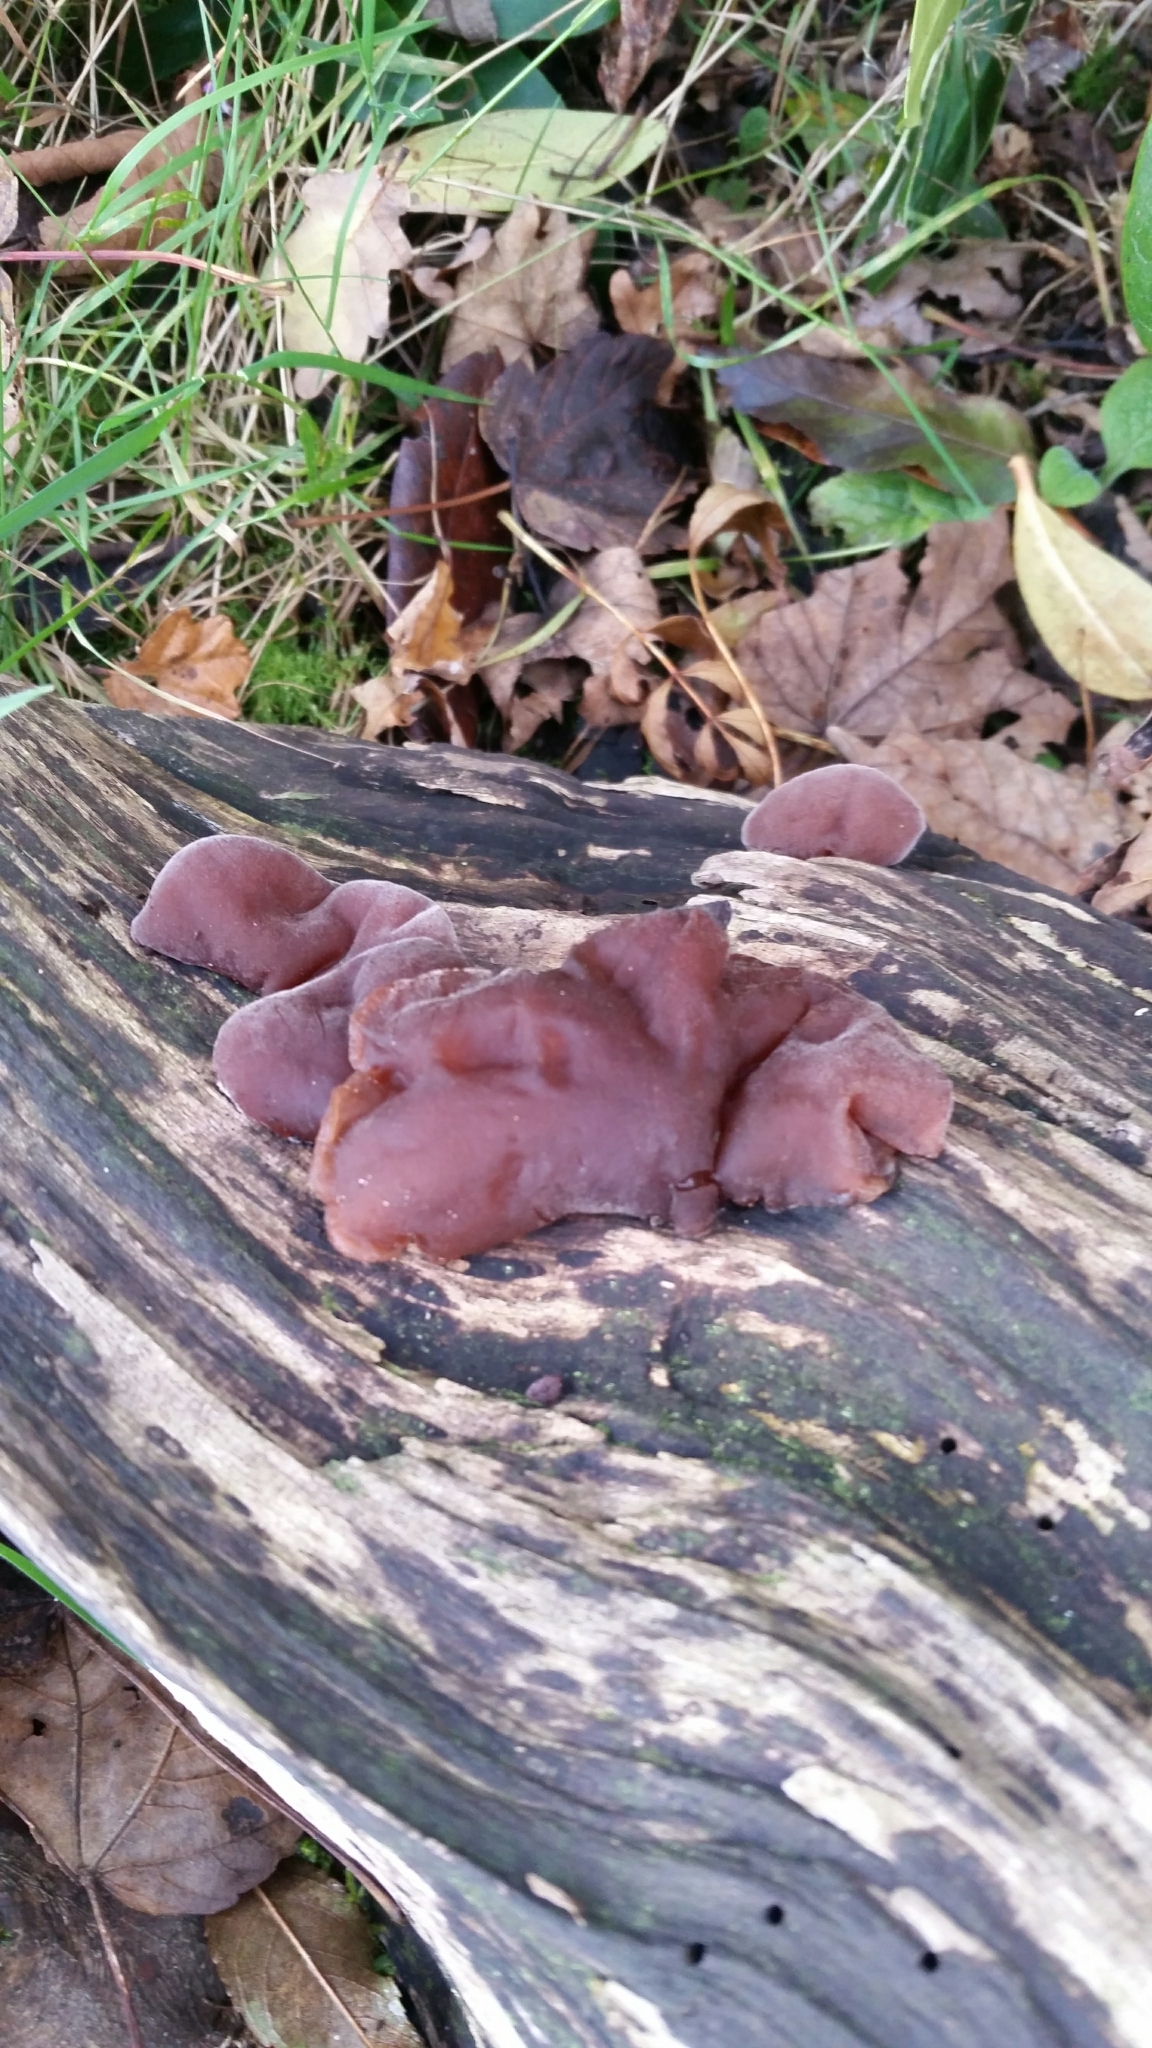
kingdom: Fungi
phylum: Basidiomycota
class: Agaricomycetes
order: Auriculariales
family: Auriculariaceae
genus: Auricularia
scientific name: Auricularia auricula-judae
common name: Jelly ear
